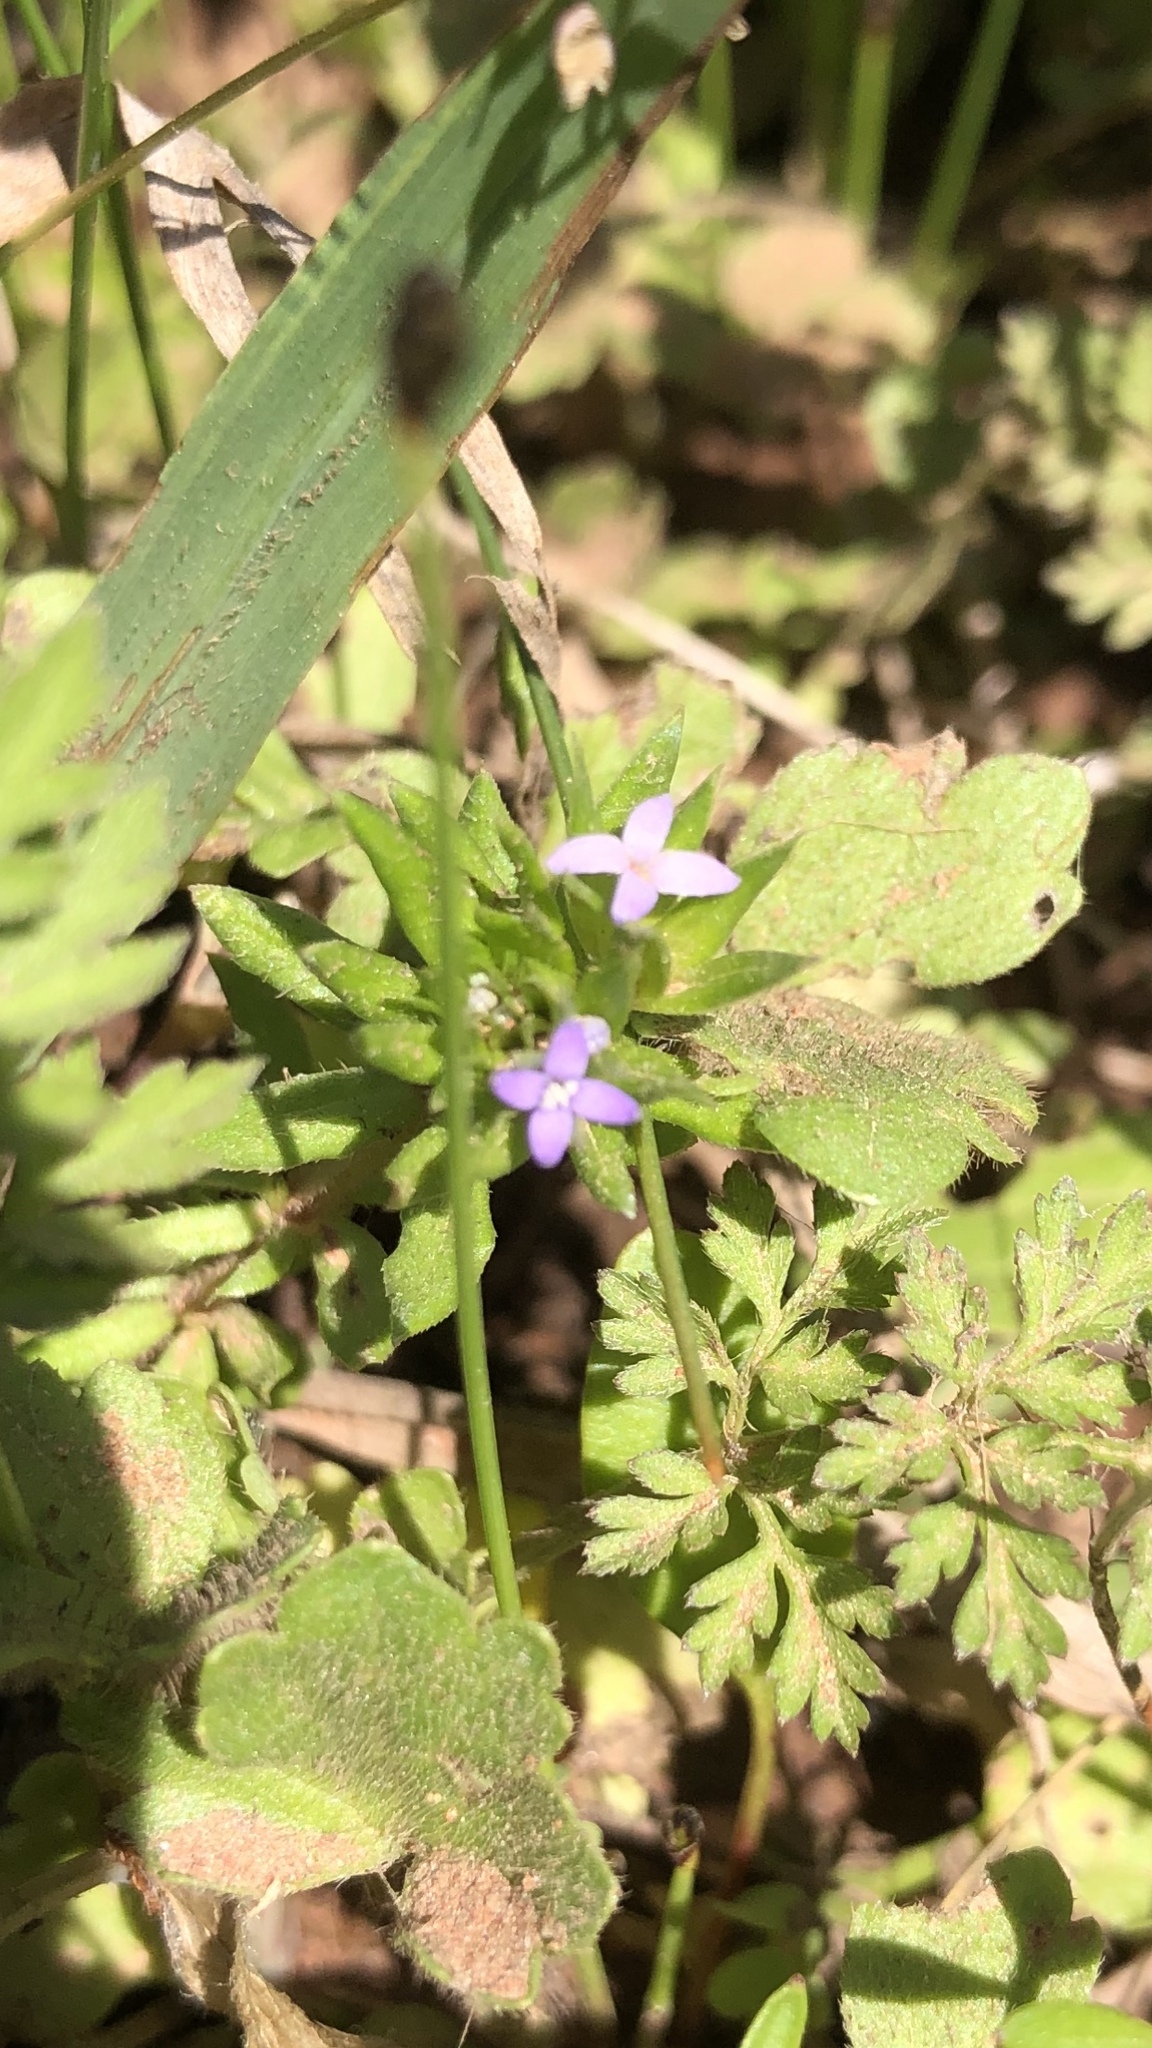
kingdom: Plantae
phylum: Tracheophyta
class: Magnoliopsida
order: Gentianales
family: Rubiaceae
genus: Sherardia
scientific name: Sherardia arvensis
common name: Field madder
